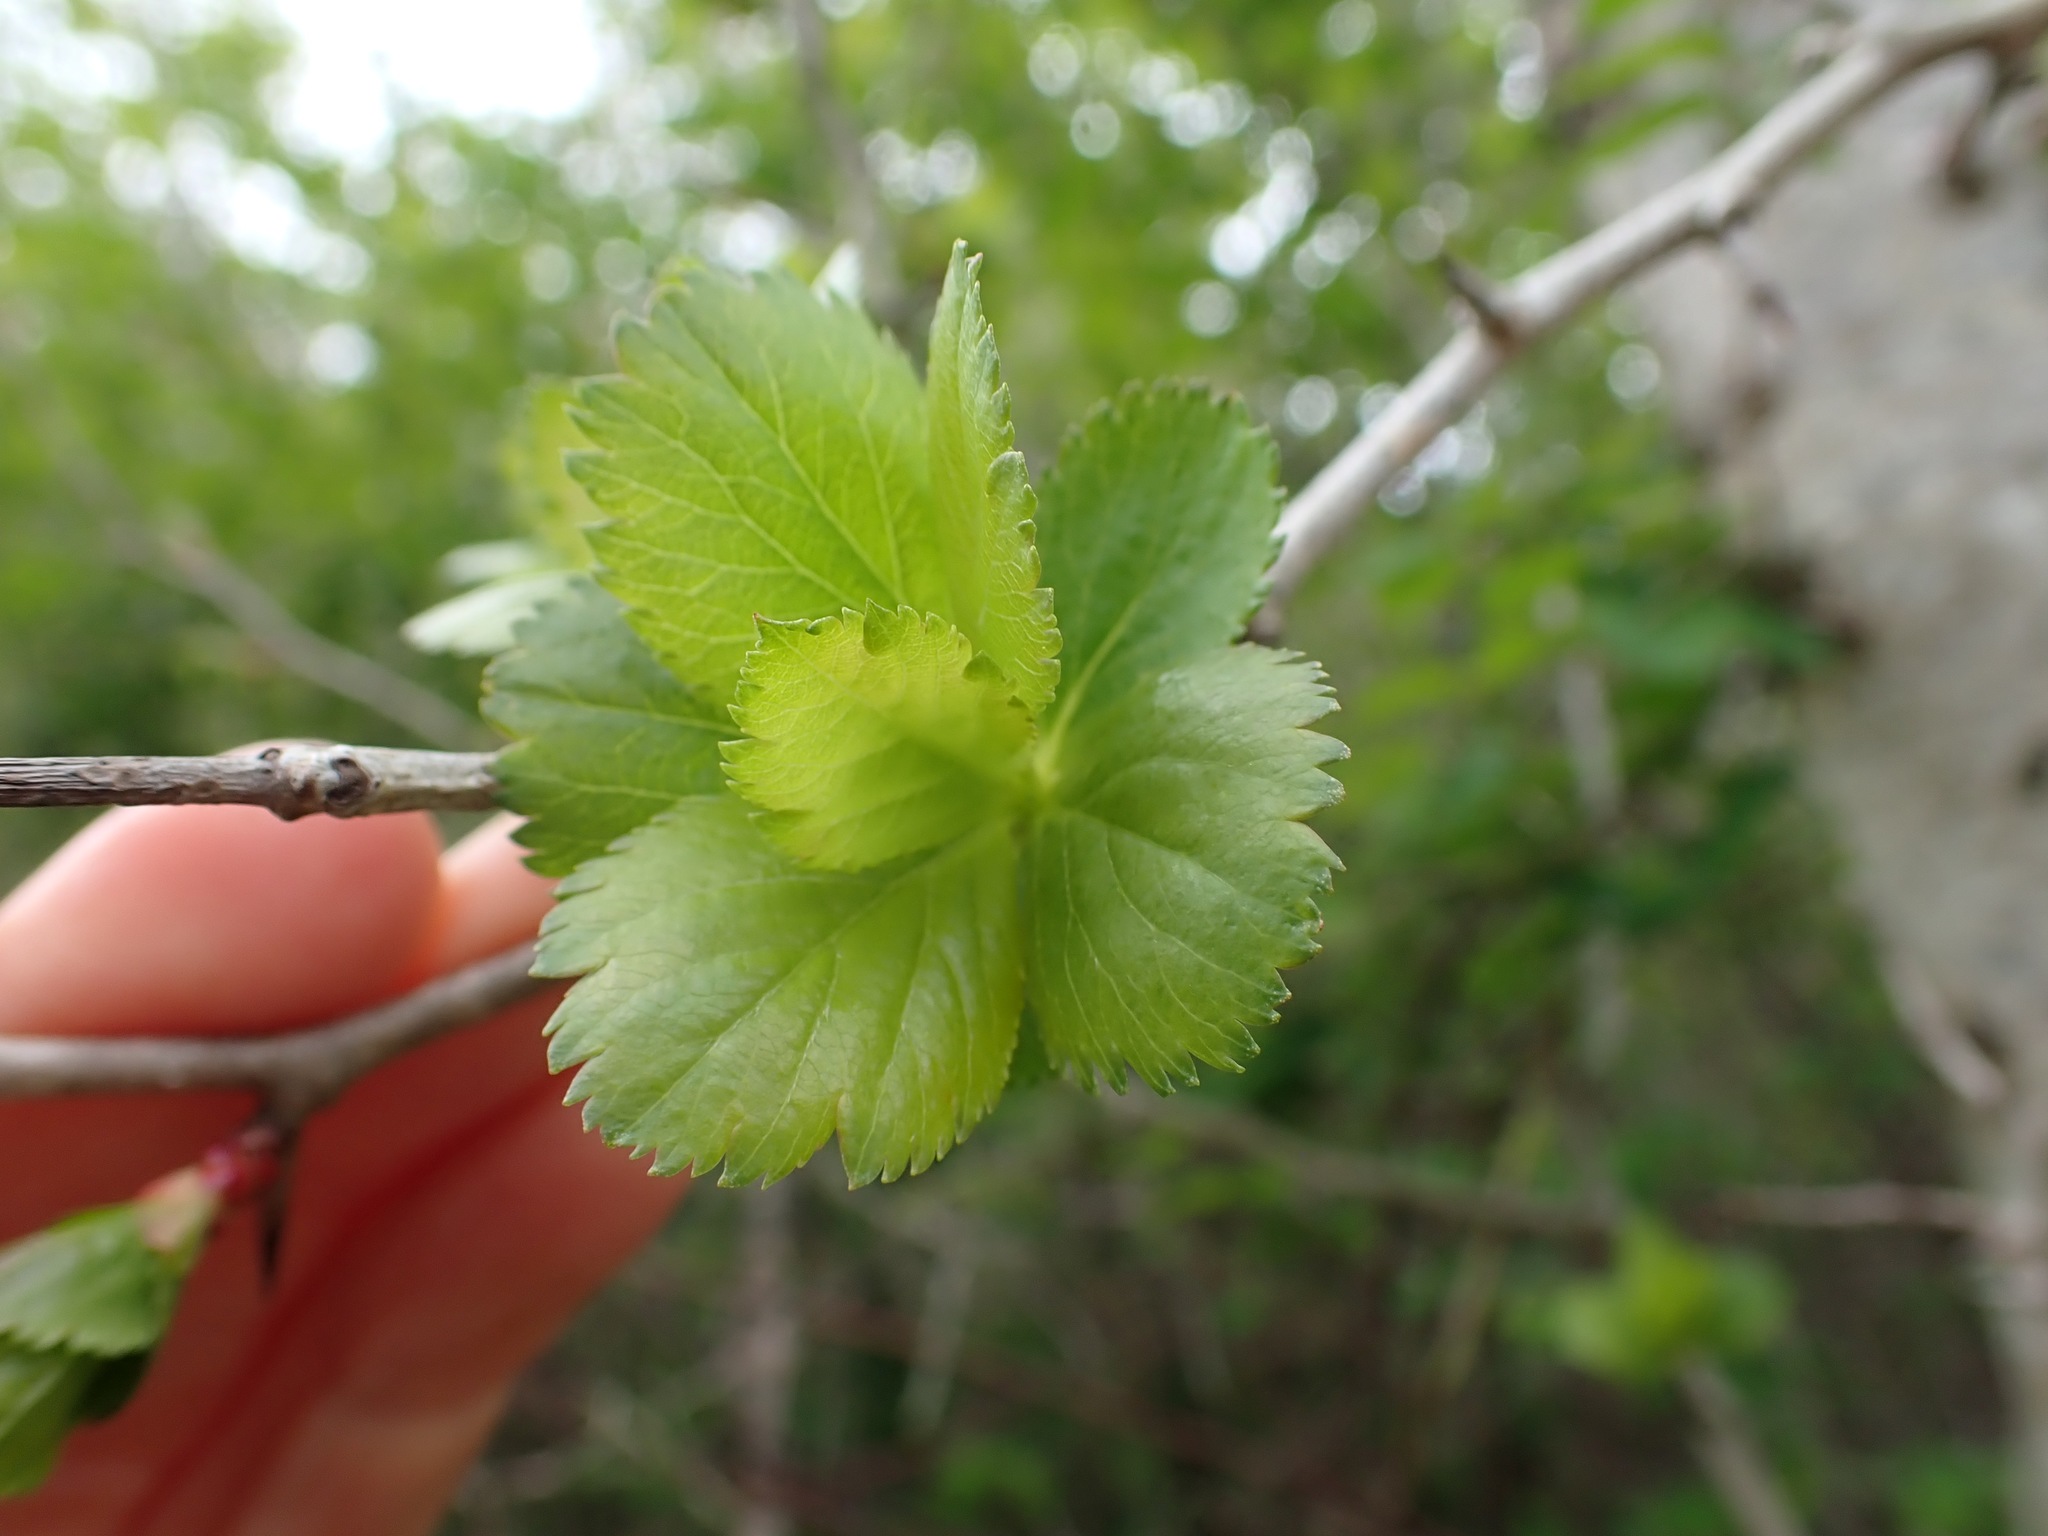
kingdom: Plantae
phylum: Tracheophyta
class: Magnoliopsida
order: Rosales
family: Rosaceae
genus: Crataegus
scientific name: Crataegus gaylussacia
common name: Huckleberry hawthorn
